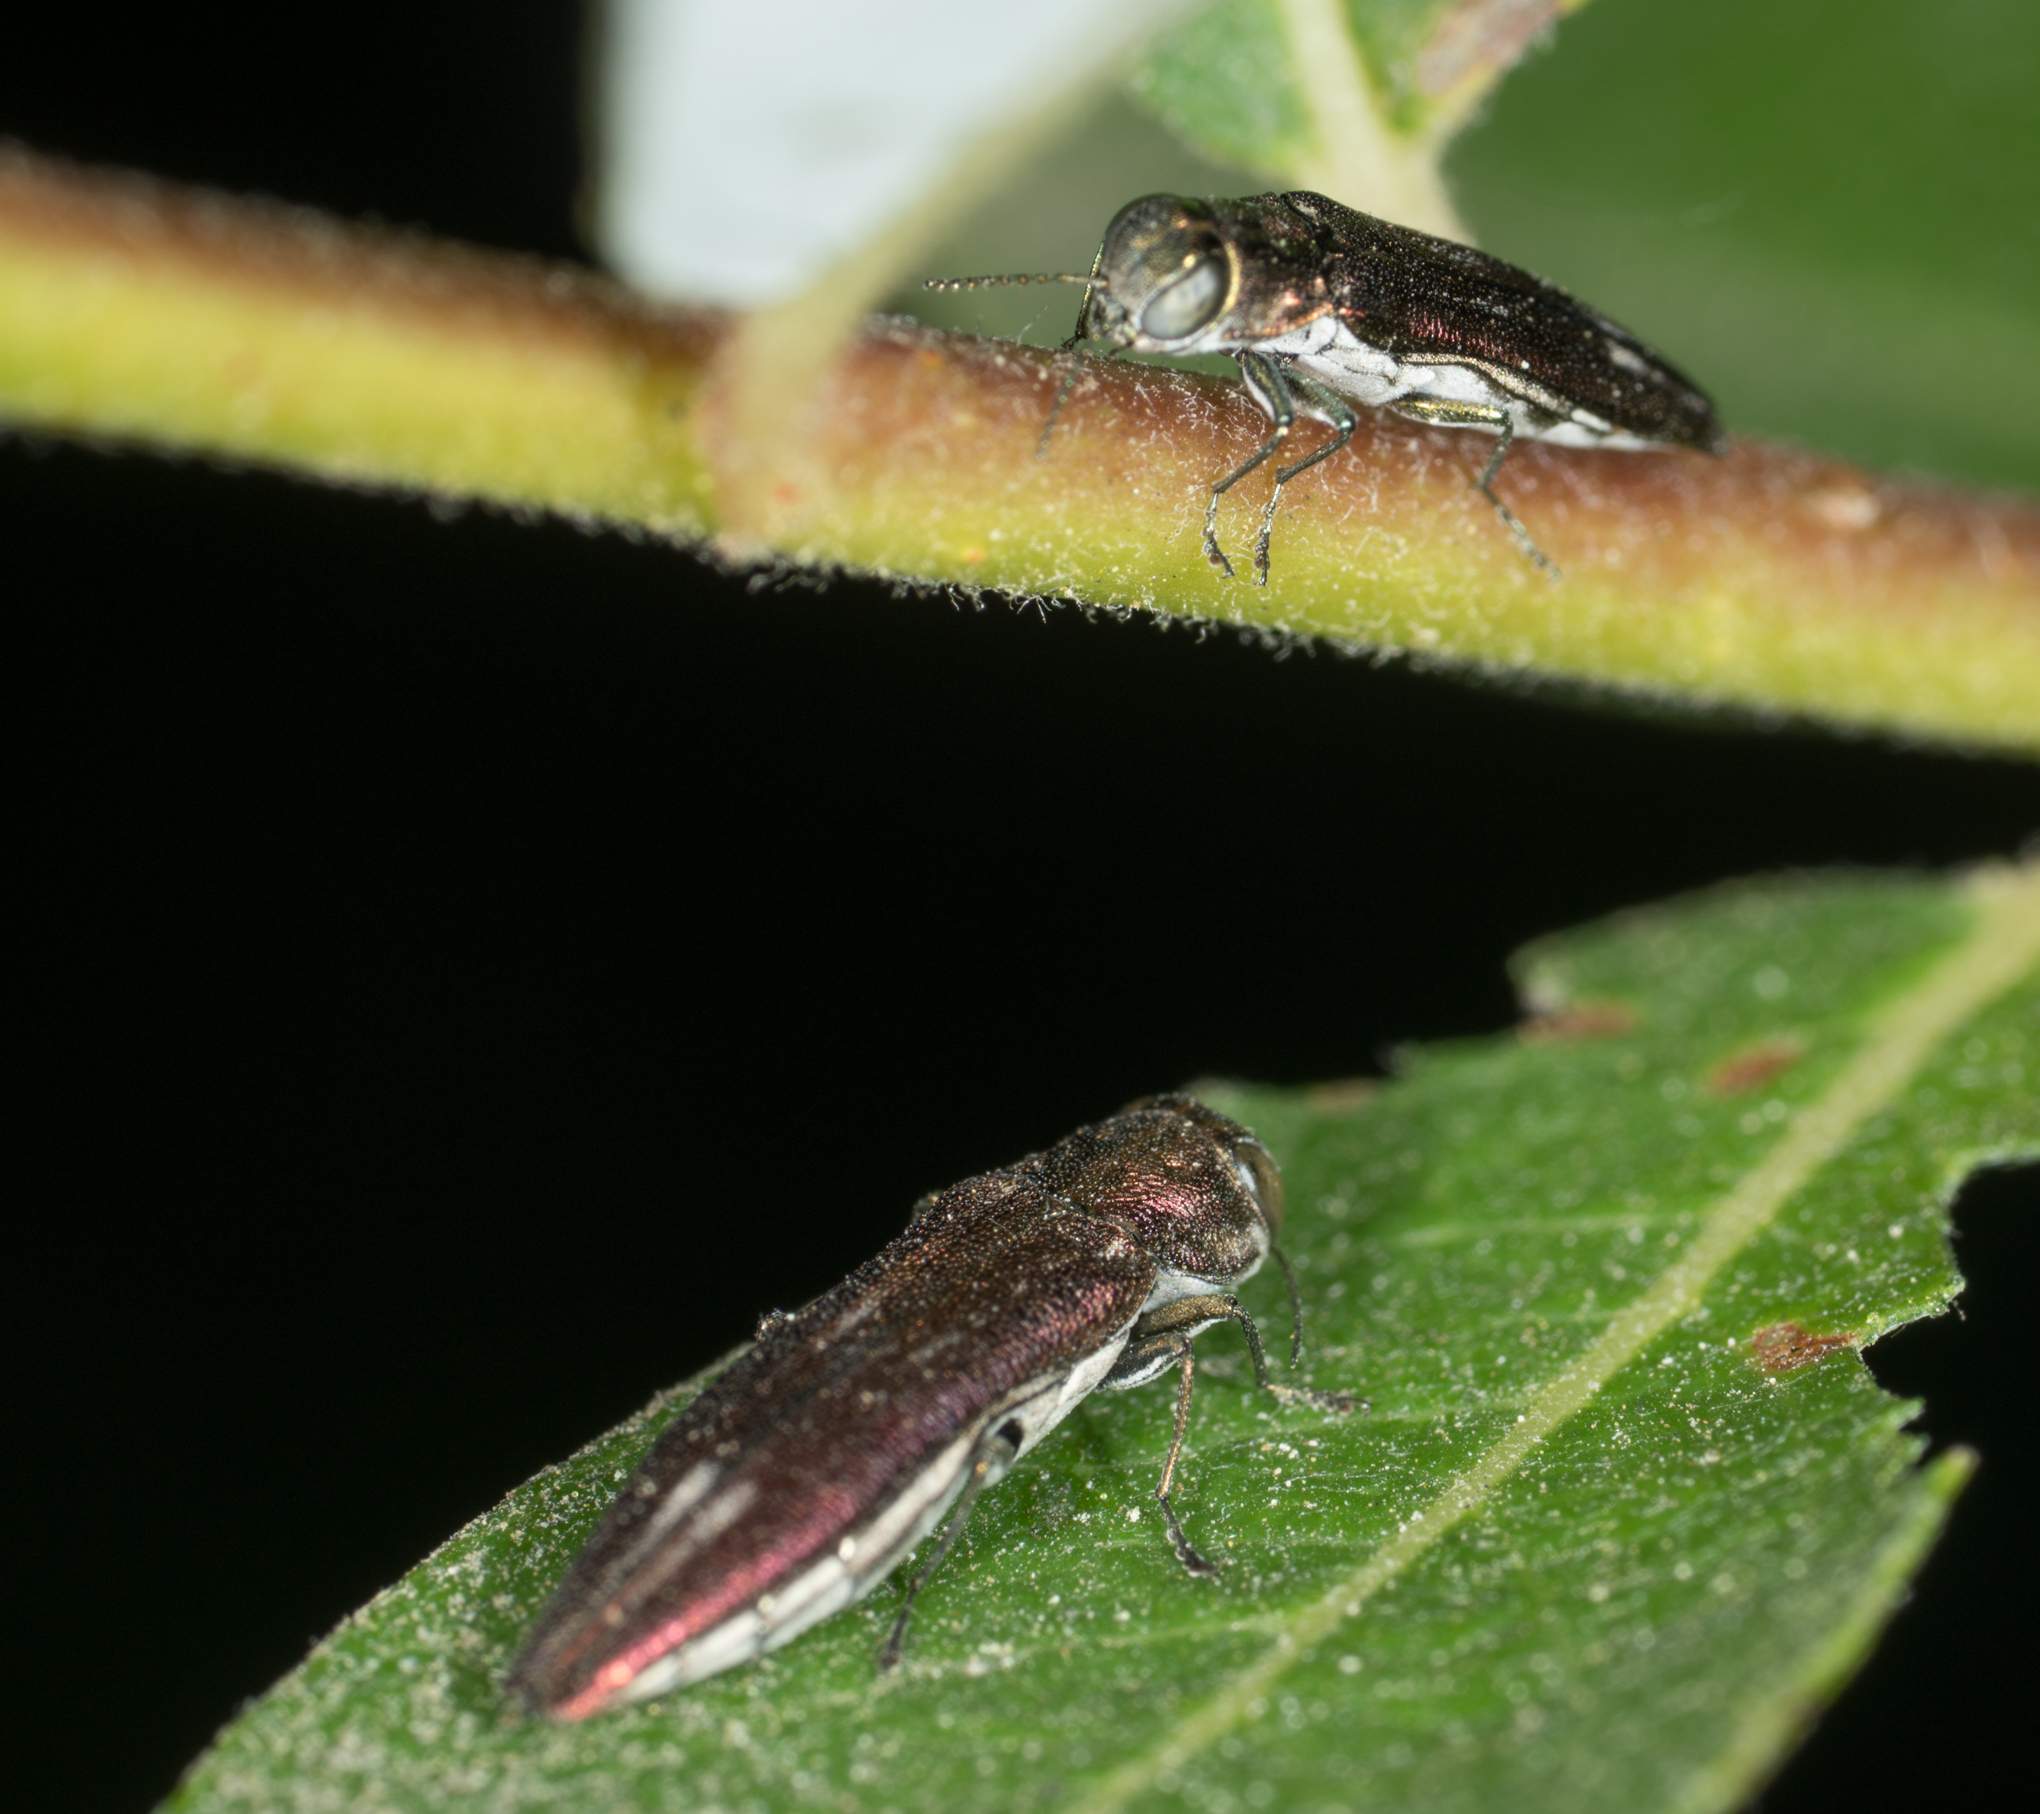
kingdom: Animalia
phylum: Arthropoda
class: Insecta
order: Coleoptera
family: Buprestidae
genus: Agrilus
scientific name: Agrilus quadriguttatus
